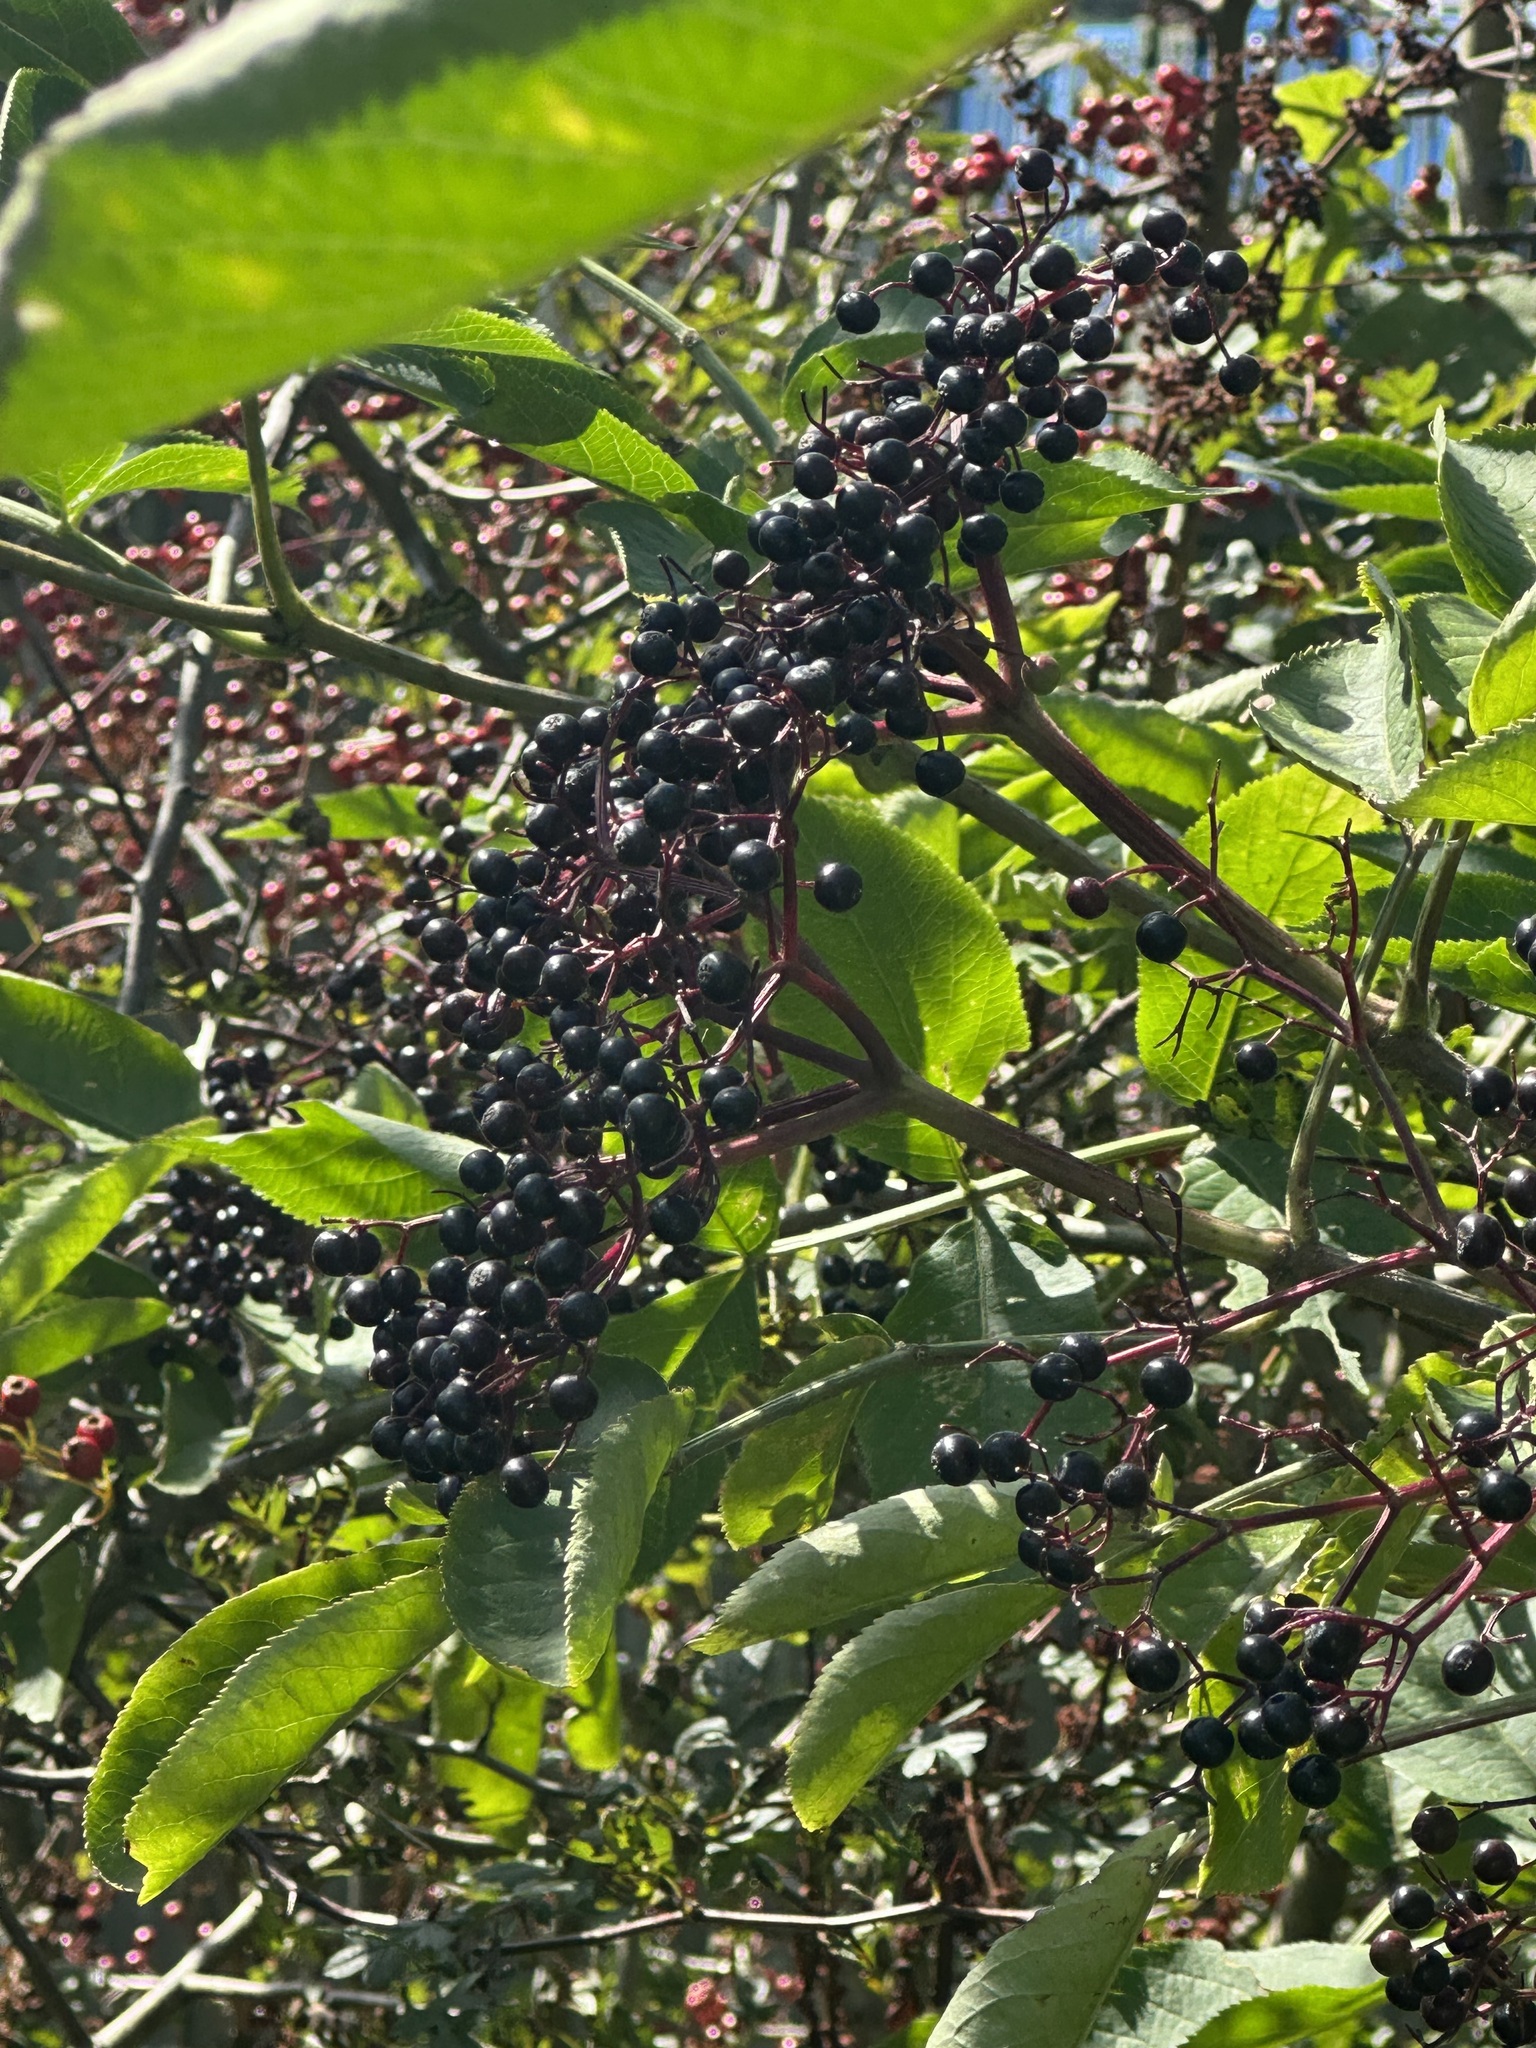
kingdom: Plantae
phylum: Tracheophyta
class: Magnoliopsida
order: Dipsacales
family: Viburnaceae
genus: Sambucus
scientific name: Sambucus nigra
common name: Elder
